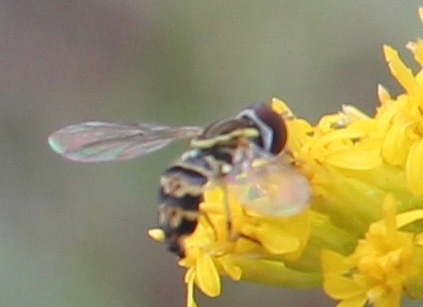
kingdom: Animalia
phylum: Arthropoda
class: Insecta
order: Diptera
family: Syrphidae
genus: Toxomerus
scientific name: Toxomerus geminatus
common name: Eastern calligrapher
